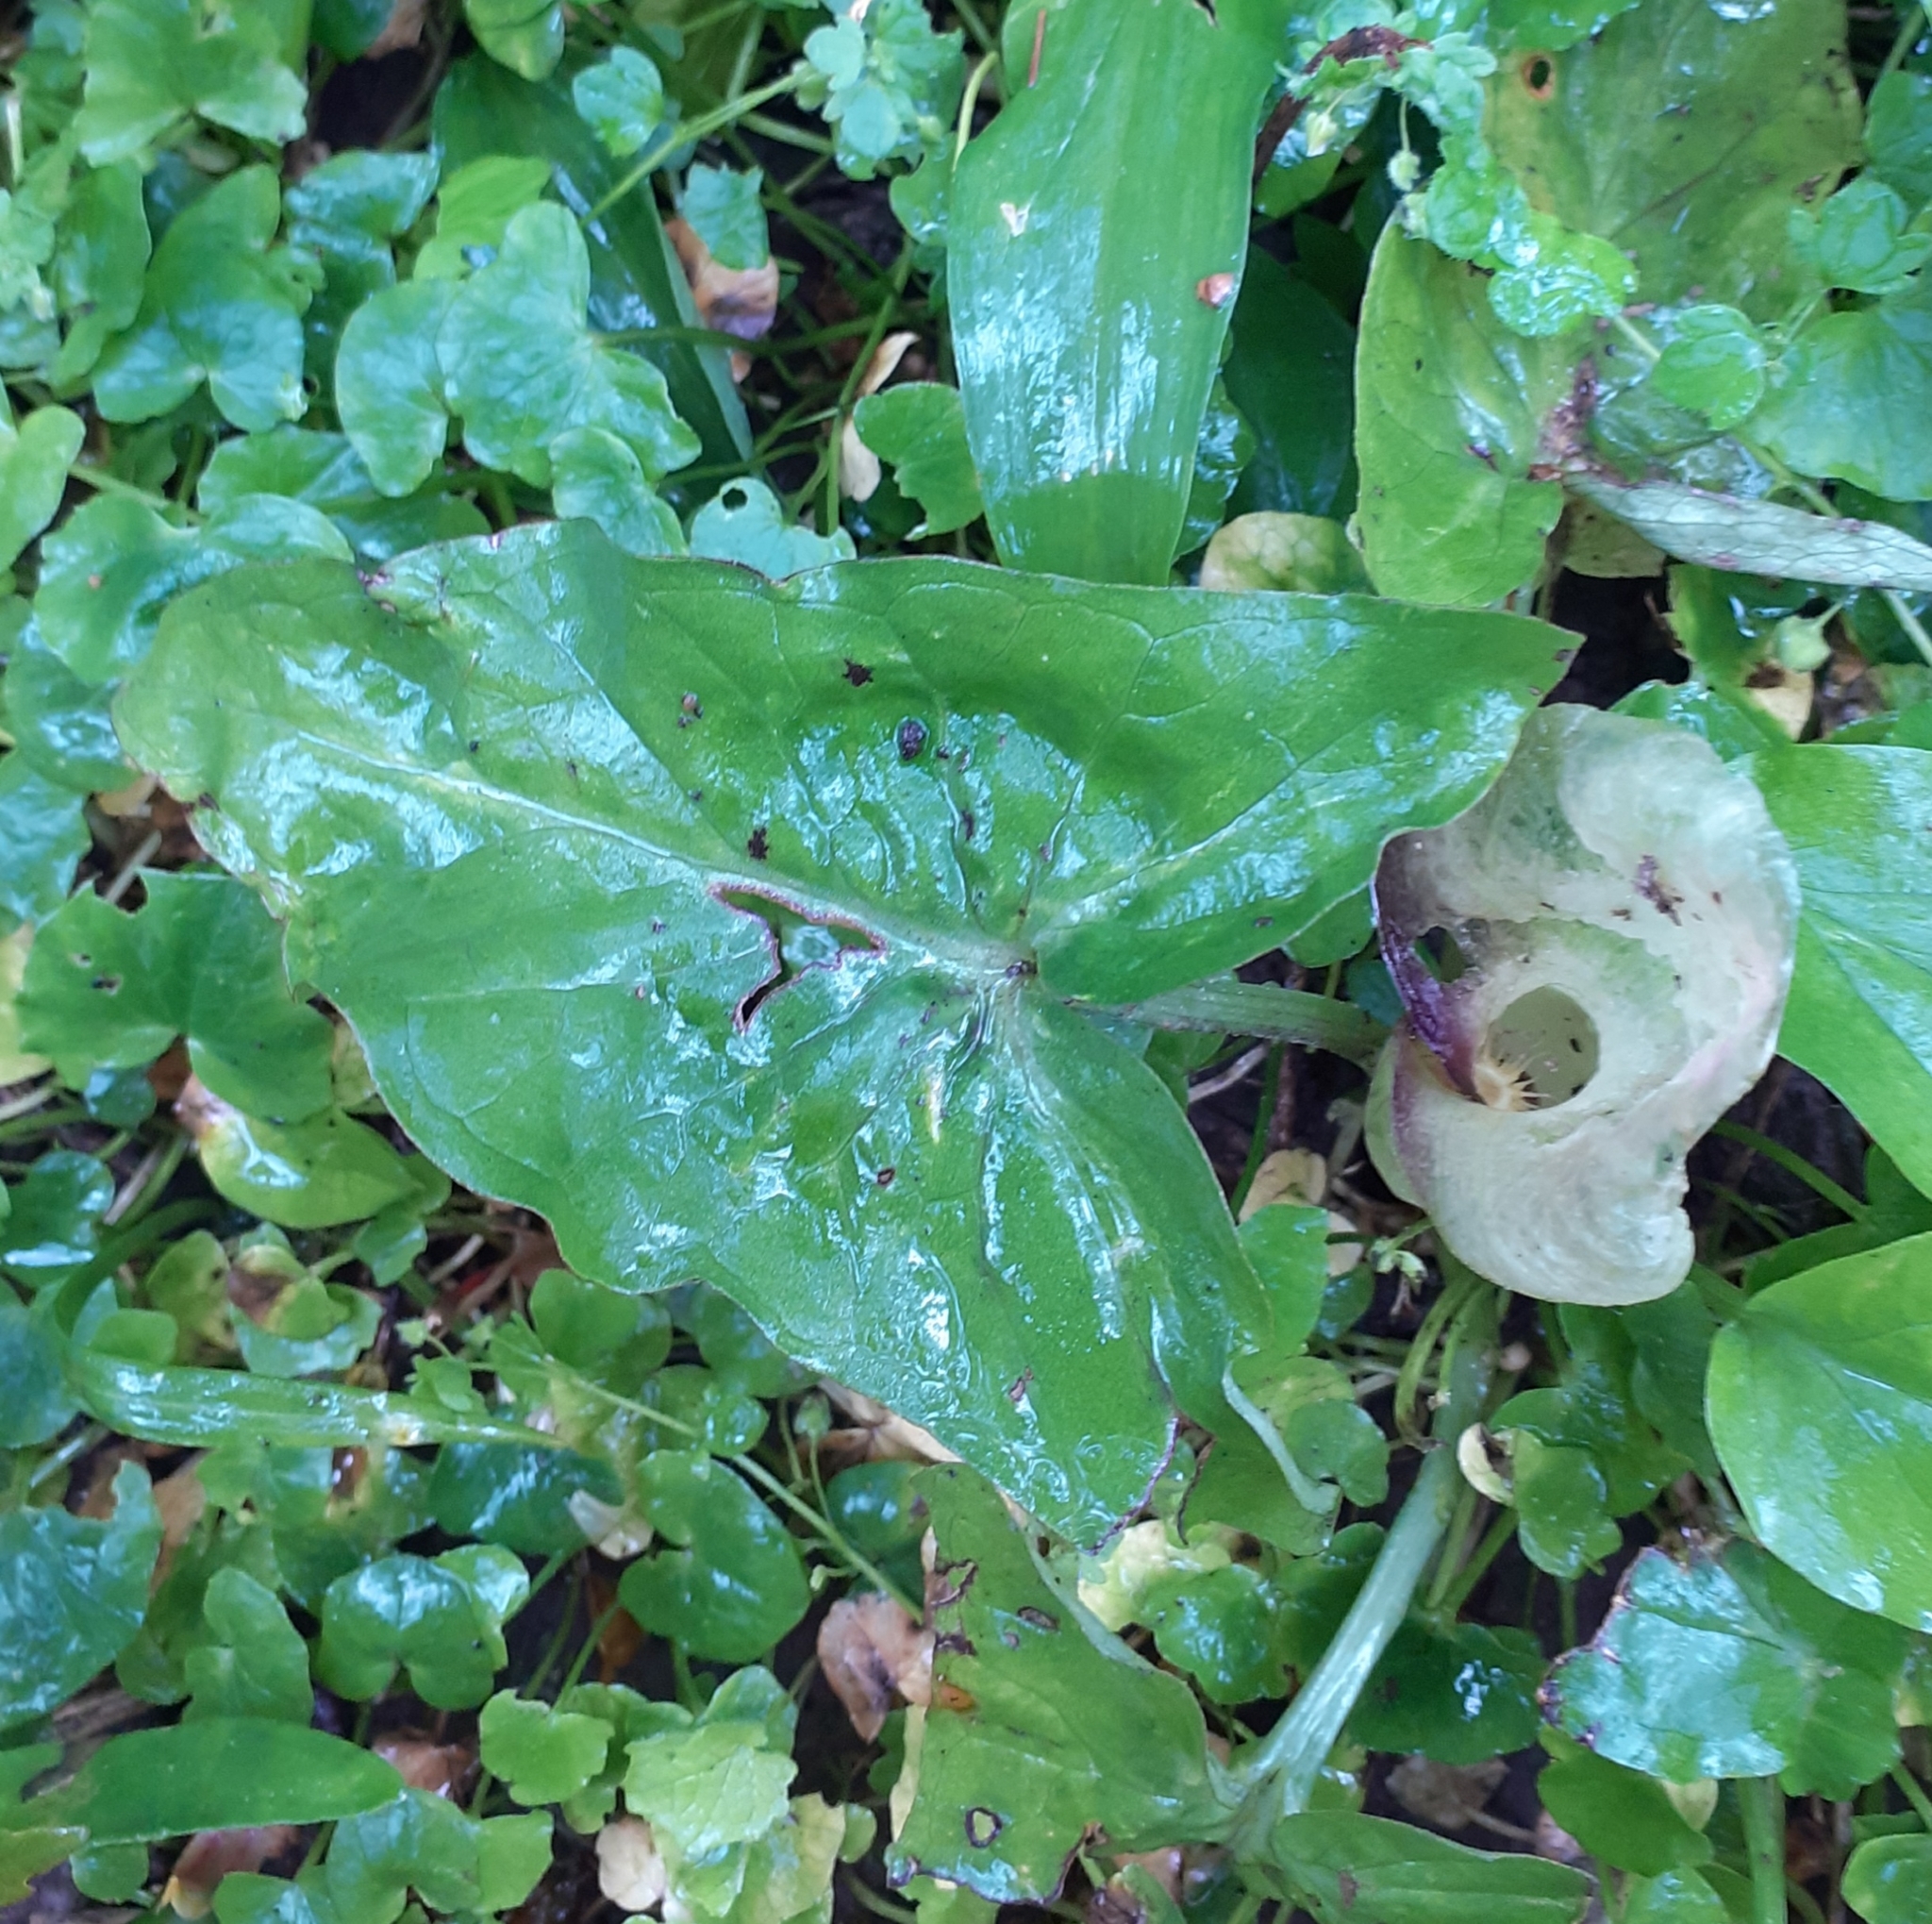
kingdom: Plantae
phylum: Tracheophyta
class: Liliopsida
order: Alismatales
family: Araceae
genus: Arum
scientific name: Arum maculatum
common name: Lords-and-ladies
